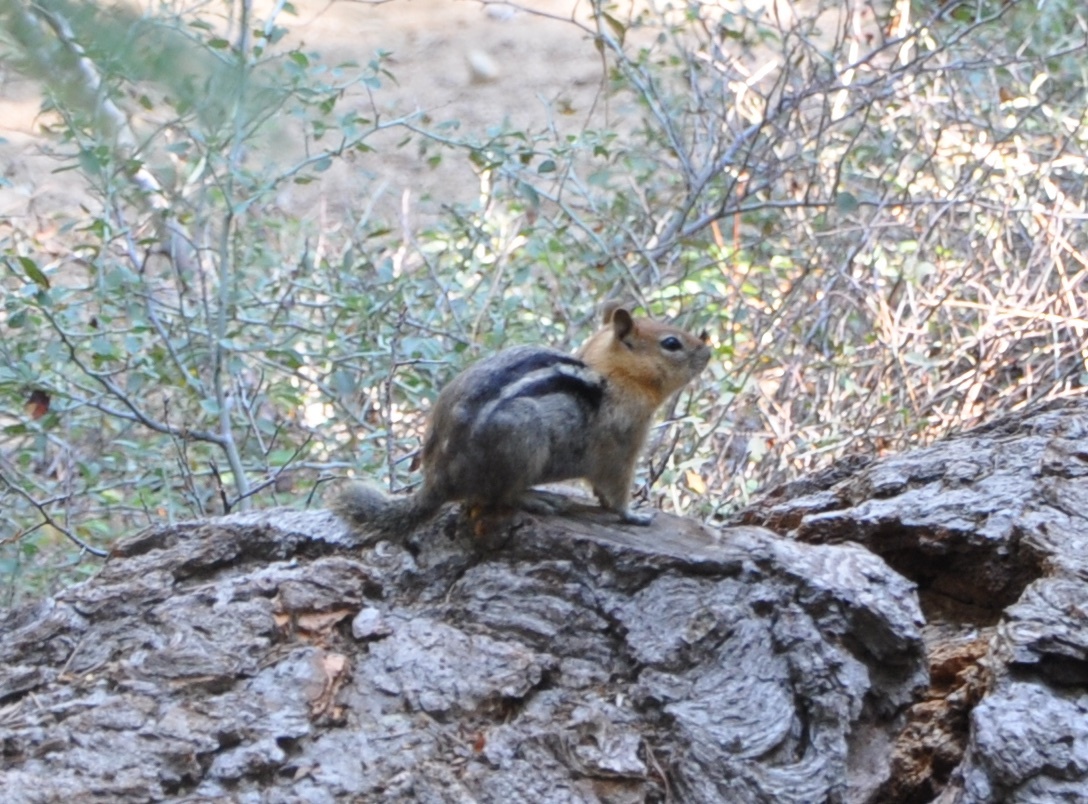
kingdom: Animalia
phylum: Chordata
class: Mammalia
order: Rodentia
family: Sciuridae
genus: Callospermophilus
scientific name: Callospermophilus lateralis
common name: Golden-mantled ground squirrel
